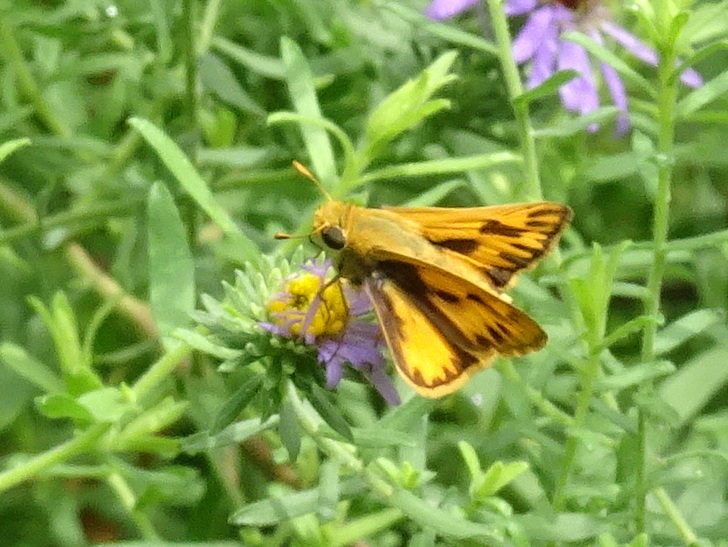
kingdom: Animalia
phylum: Arthropoda
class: Insecta
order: Lepidoptera
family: Hesperiidae
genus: Hylephila
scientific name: Hylephila phyleus
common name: Fiery skipper
